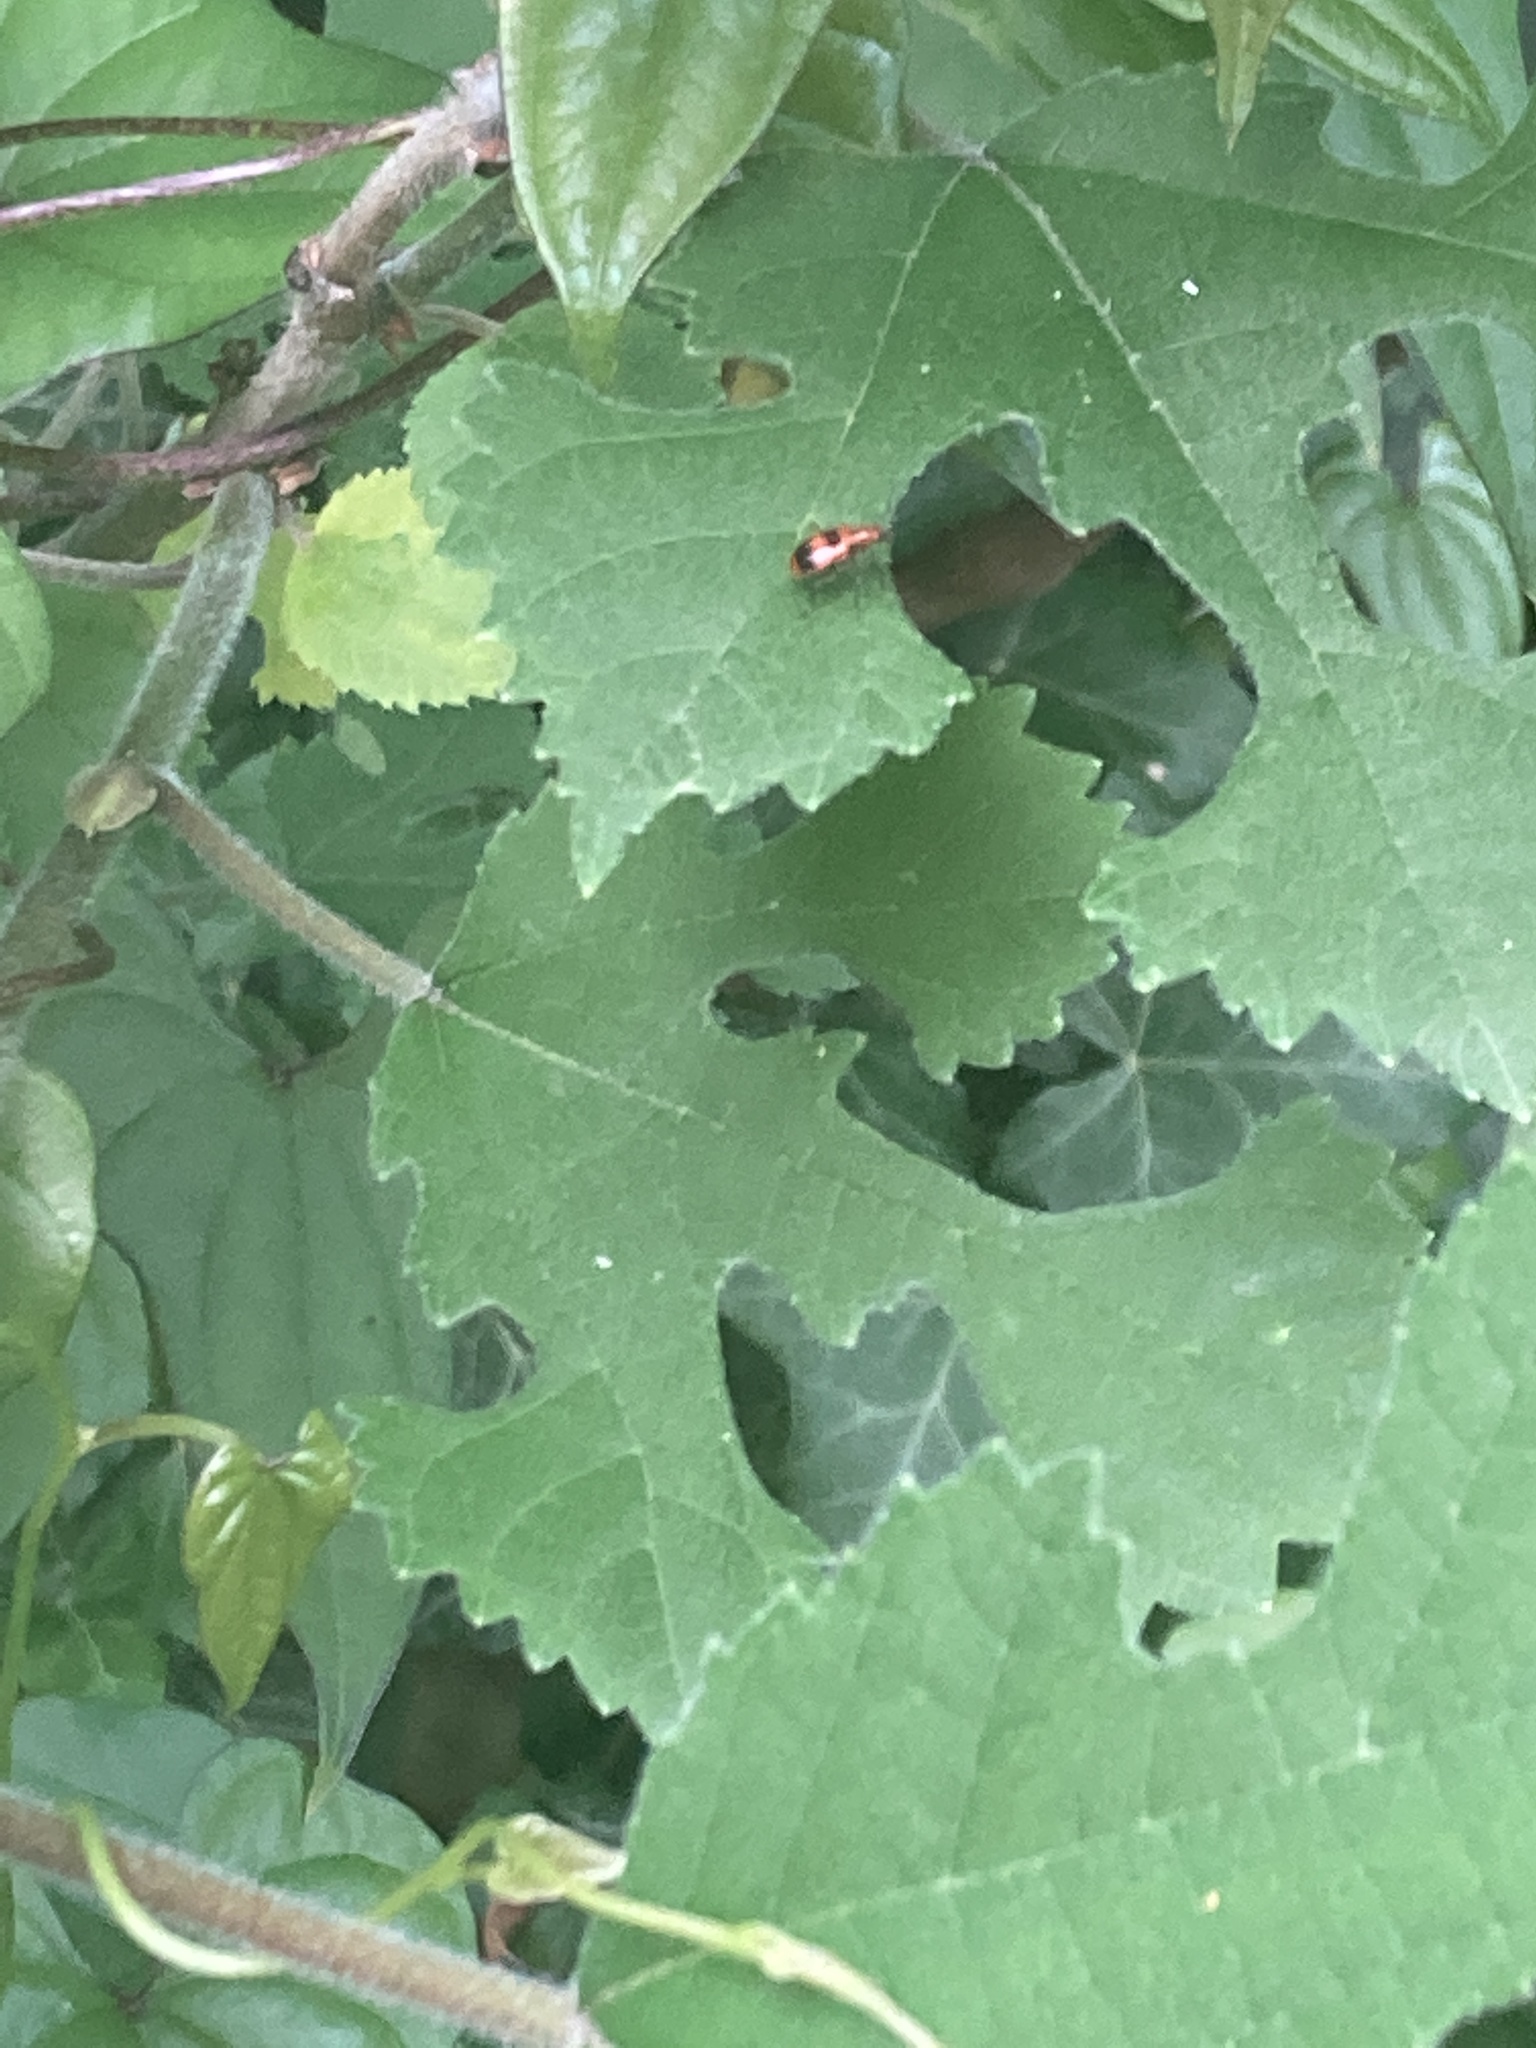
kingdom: Animalia
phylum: Arthropoda
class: Insecta
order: Coleoptera
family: Chrysomelidae
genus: Neolema
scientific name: Neolema sexpunctata
